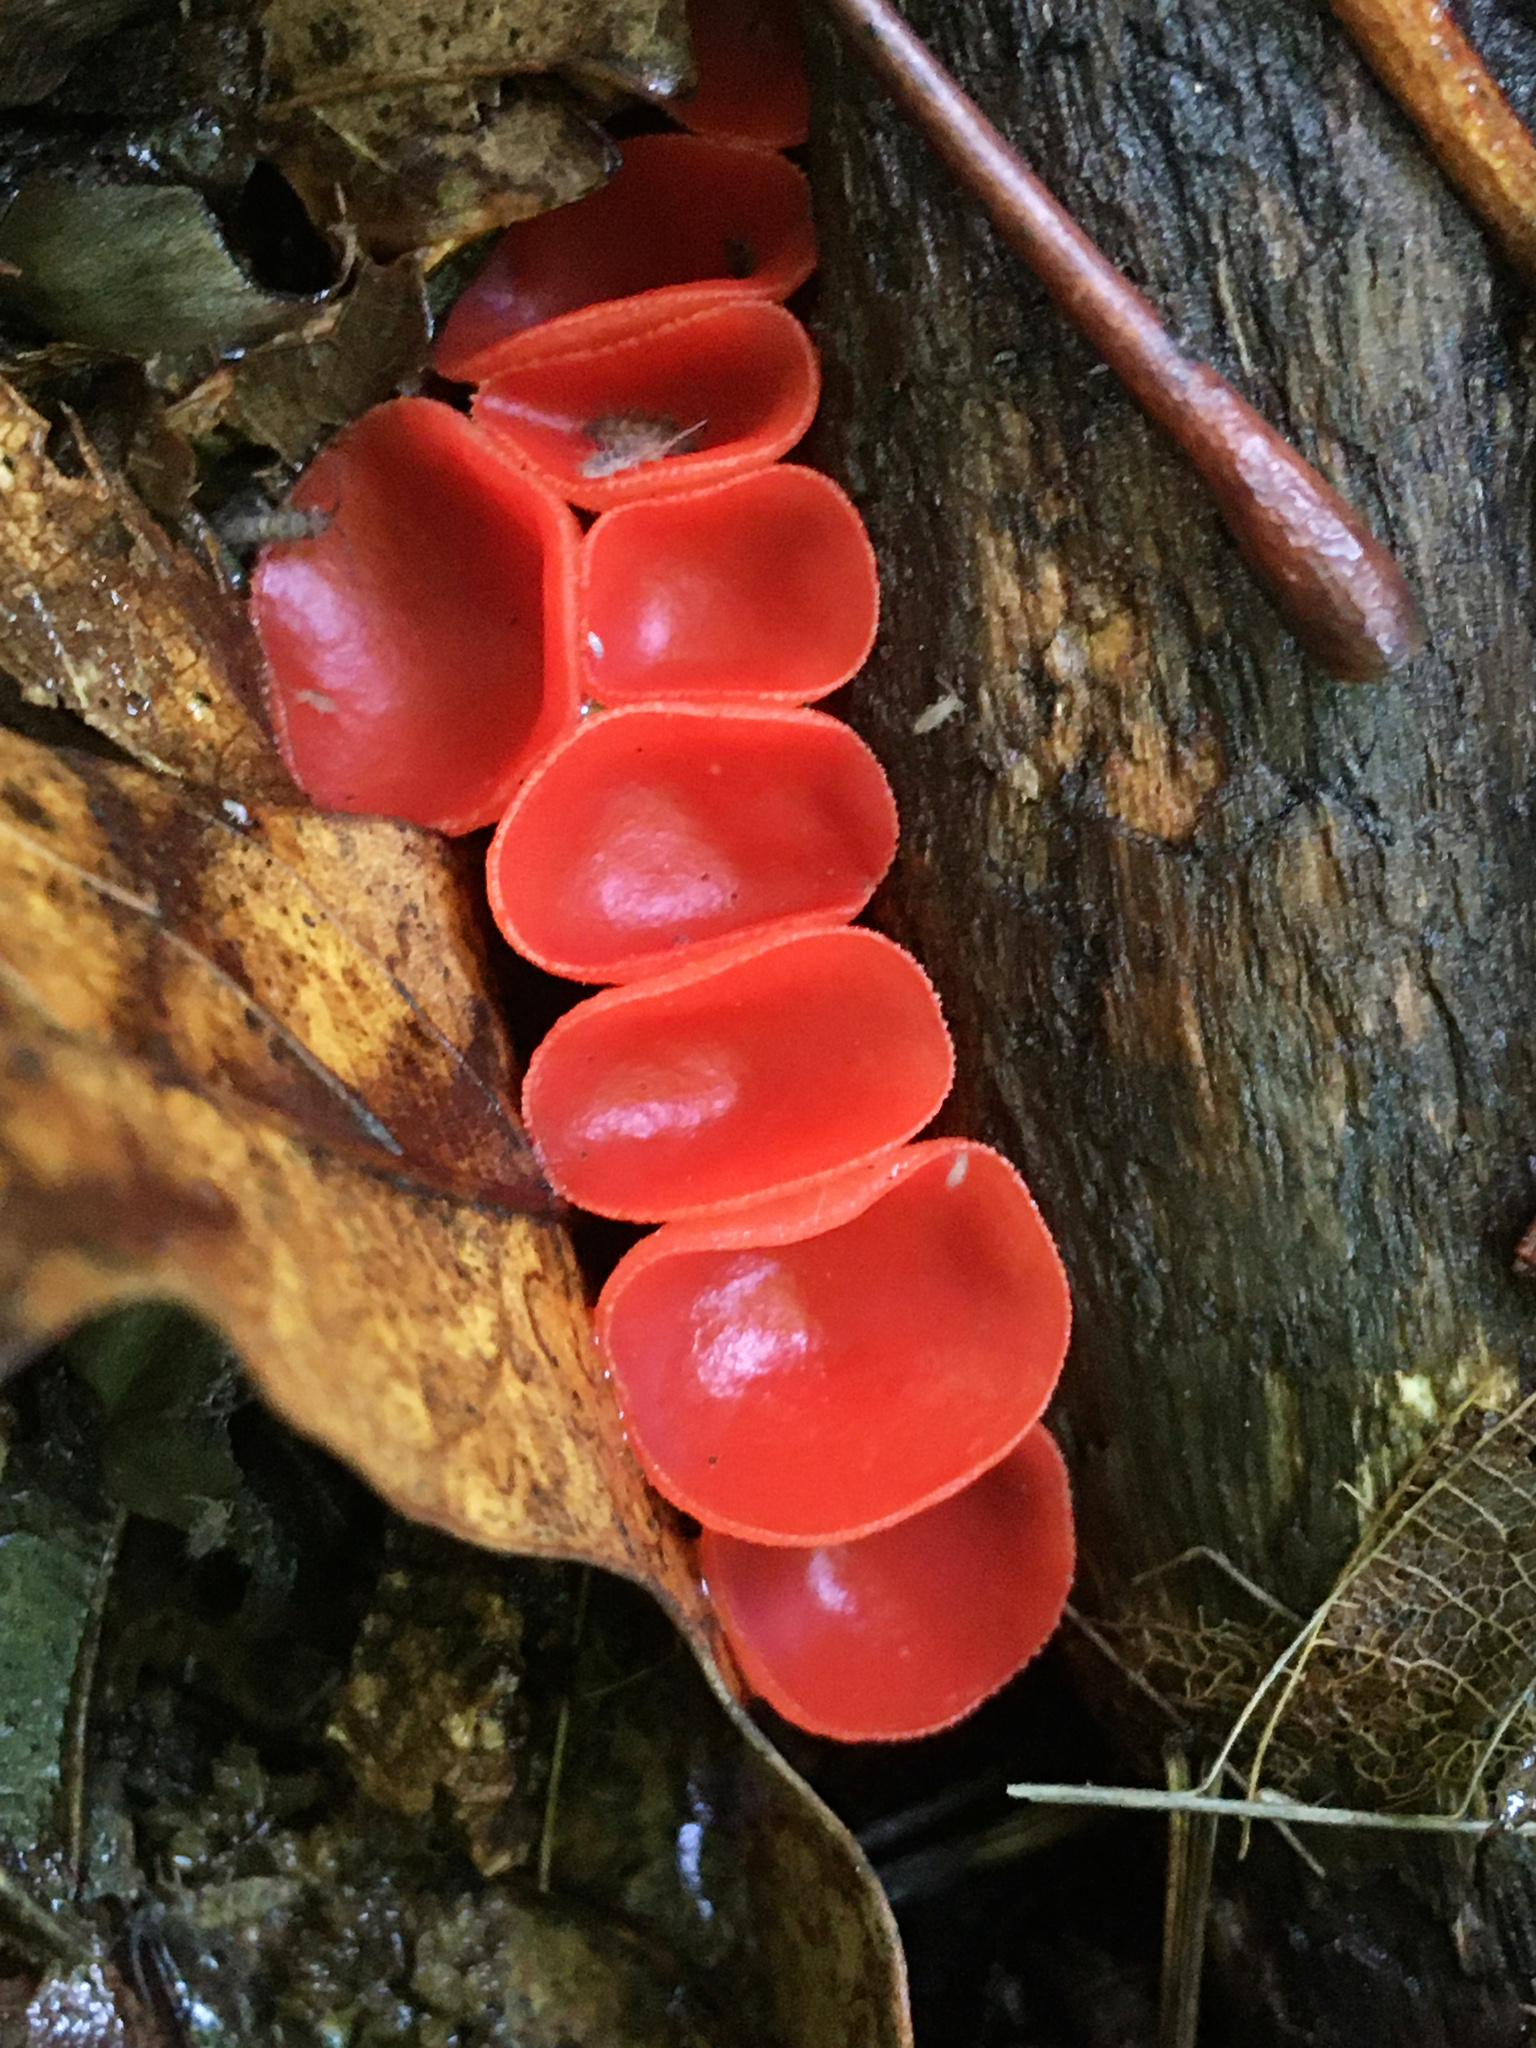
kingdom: Fungi
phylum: Ascomycota
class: Pezizomycetes
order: Pezizales
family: Sarcoscyphaceae
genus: Sarcoscypha
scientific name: Sarcoscypha occidentalis
